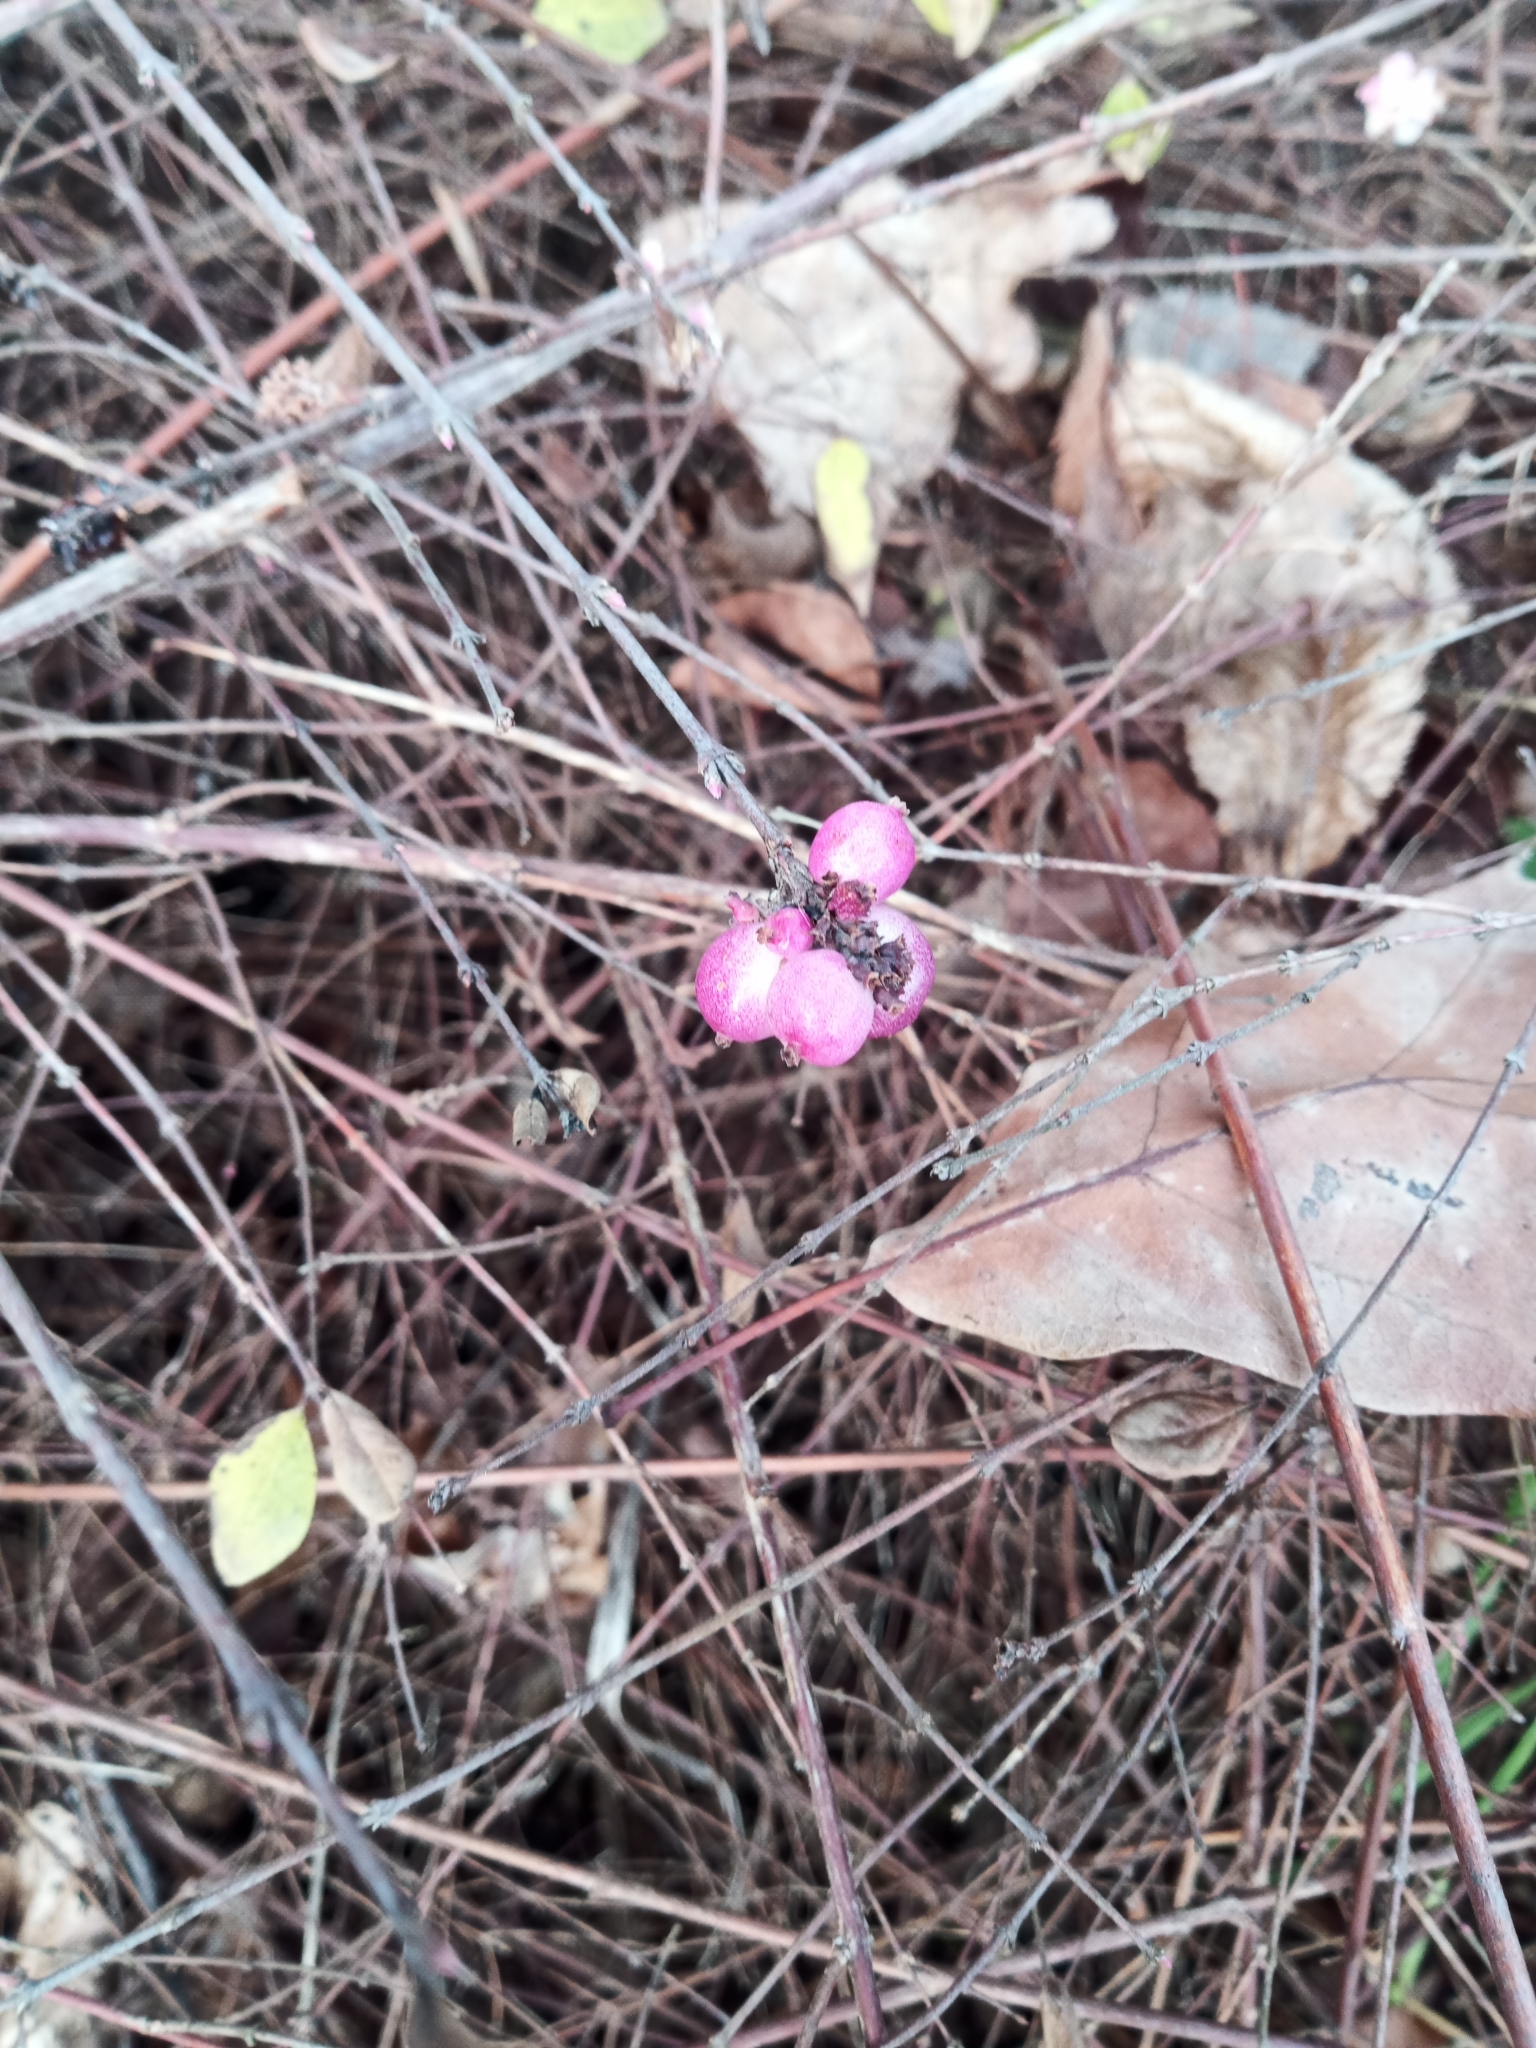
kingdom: Plantae
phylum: Tracheophyta
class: Magnoliopsida
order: Dipsacales
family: Caprifoliaceae
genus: Symphoricarpos
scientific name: Symphoricarpos orbiculatus
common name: Coralberry
